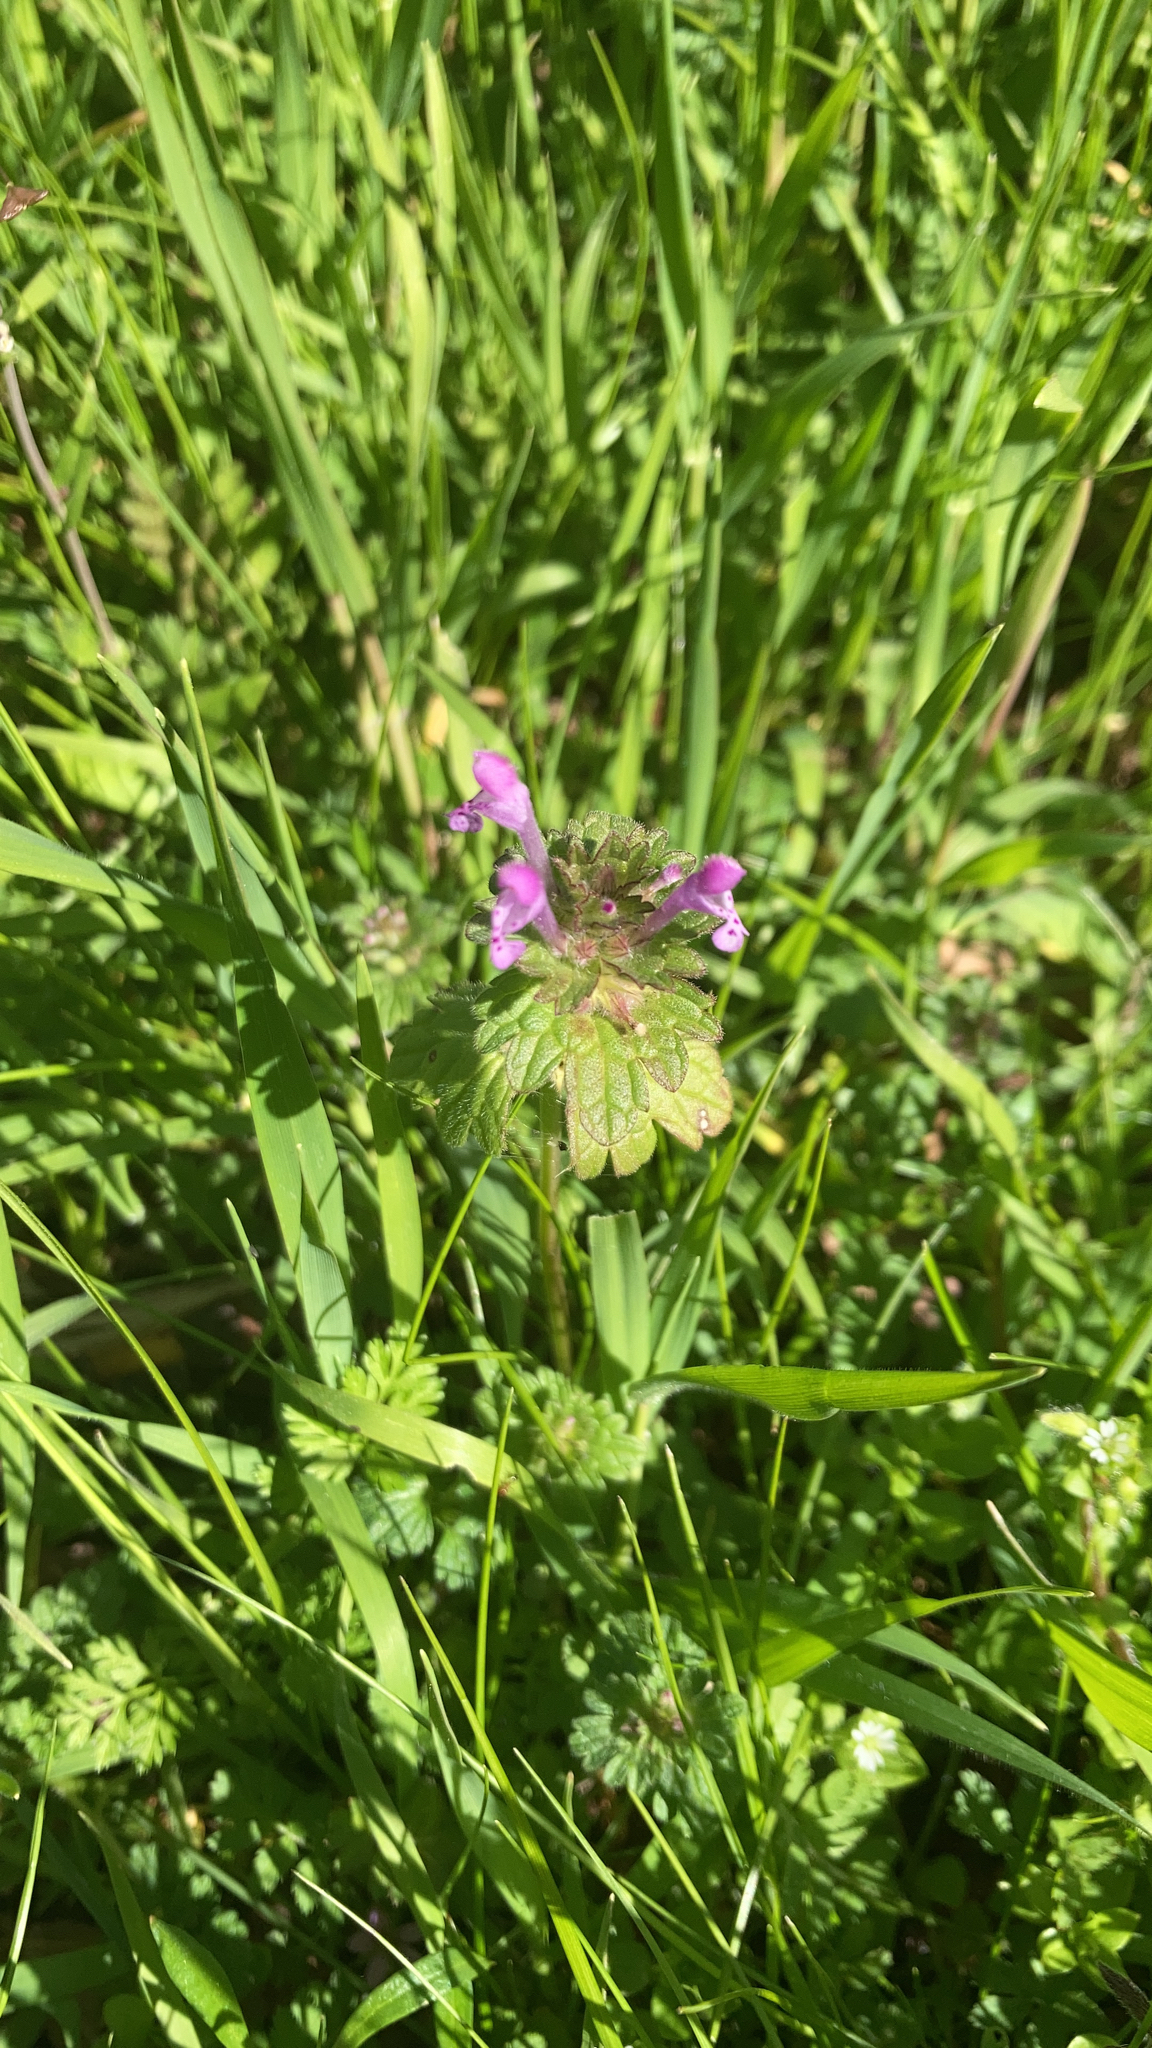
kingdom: Plantae
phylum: Tracheophyta
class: Magnoliopsida
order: Lamiales
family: Lamiaceae
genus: Lamium
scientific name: Lamium amplexicaule
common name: Henbit dead-nettle
